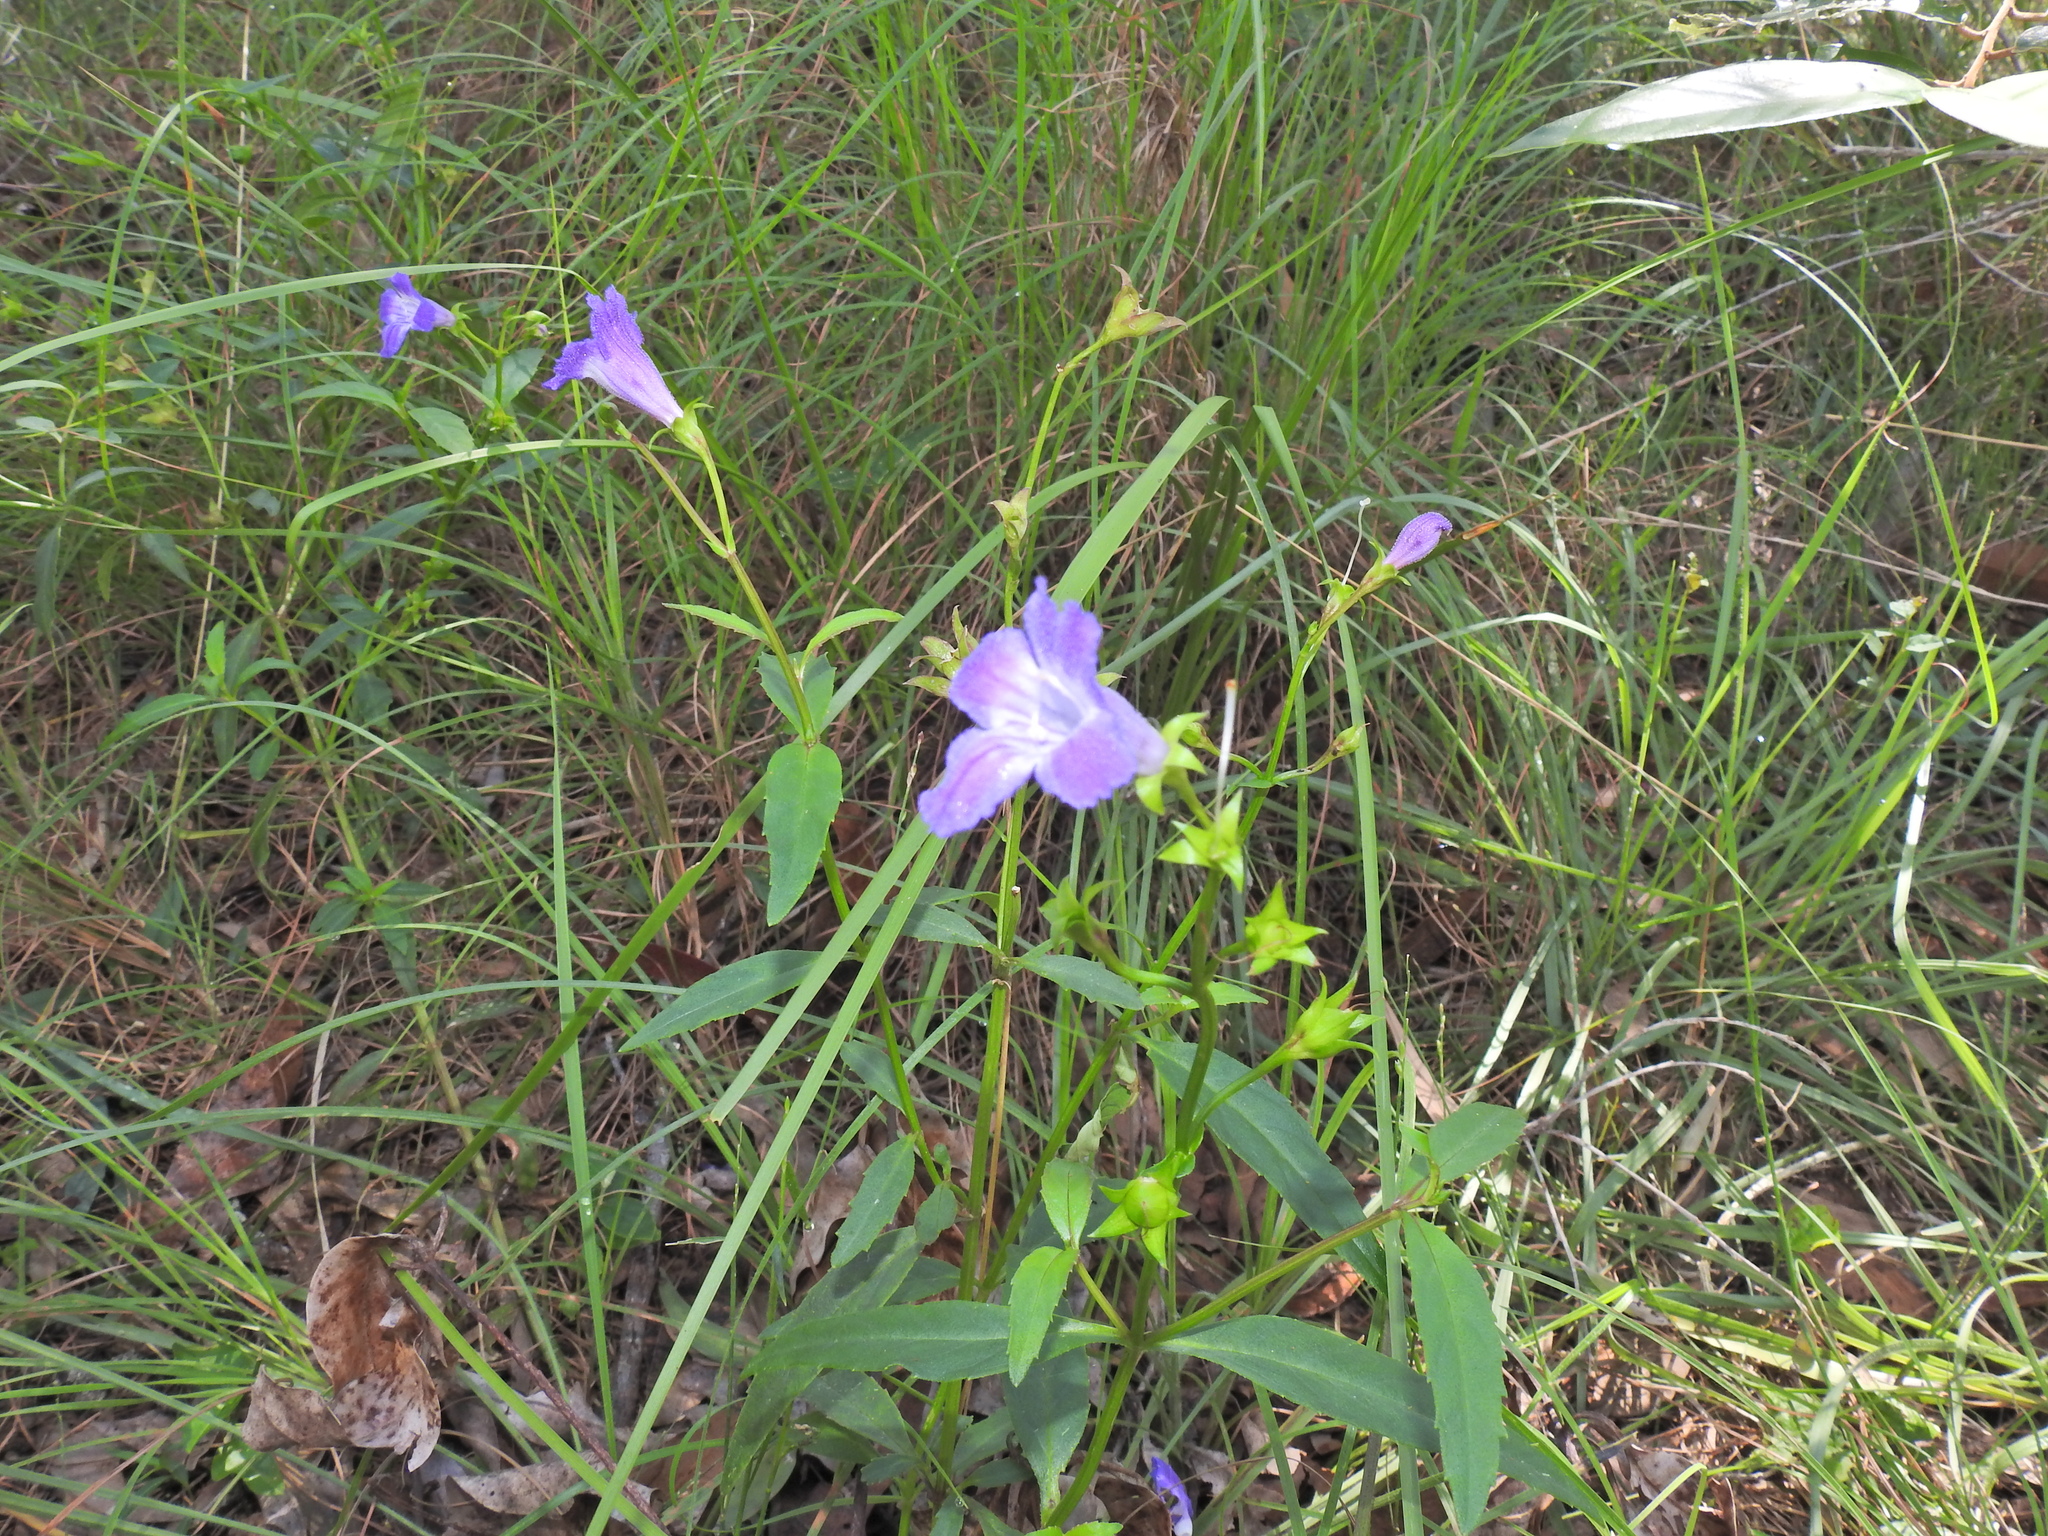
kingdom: Plantae
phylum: Tracheophyta
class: Magnoliopsida
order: Lamiales
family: Linderniaceae
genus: Artanema
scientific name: Artanema fimbriatum
